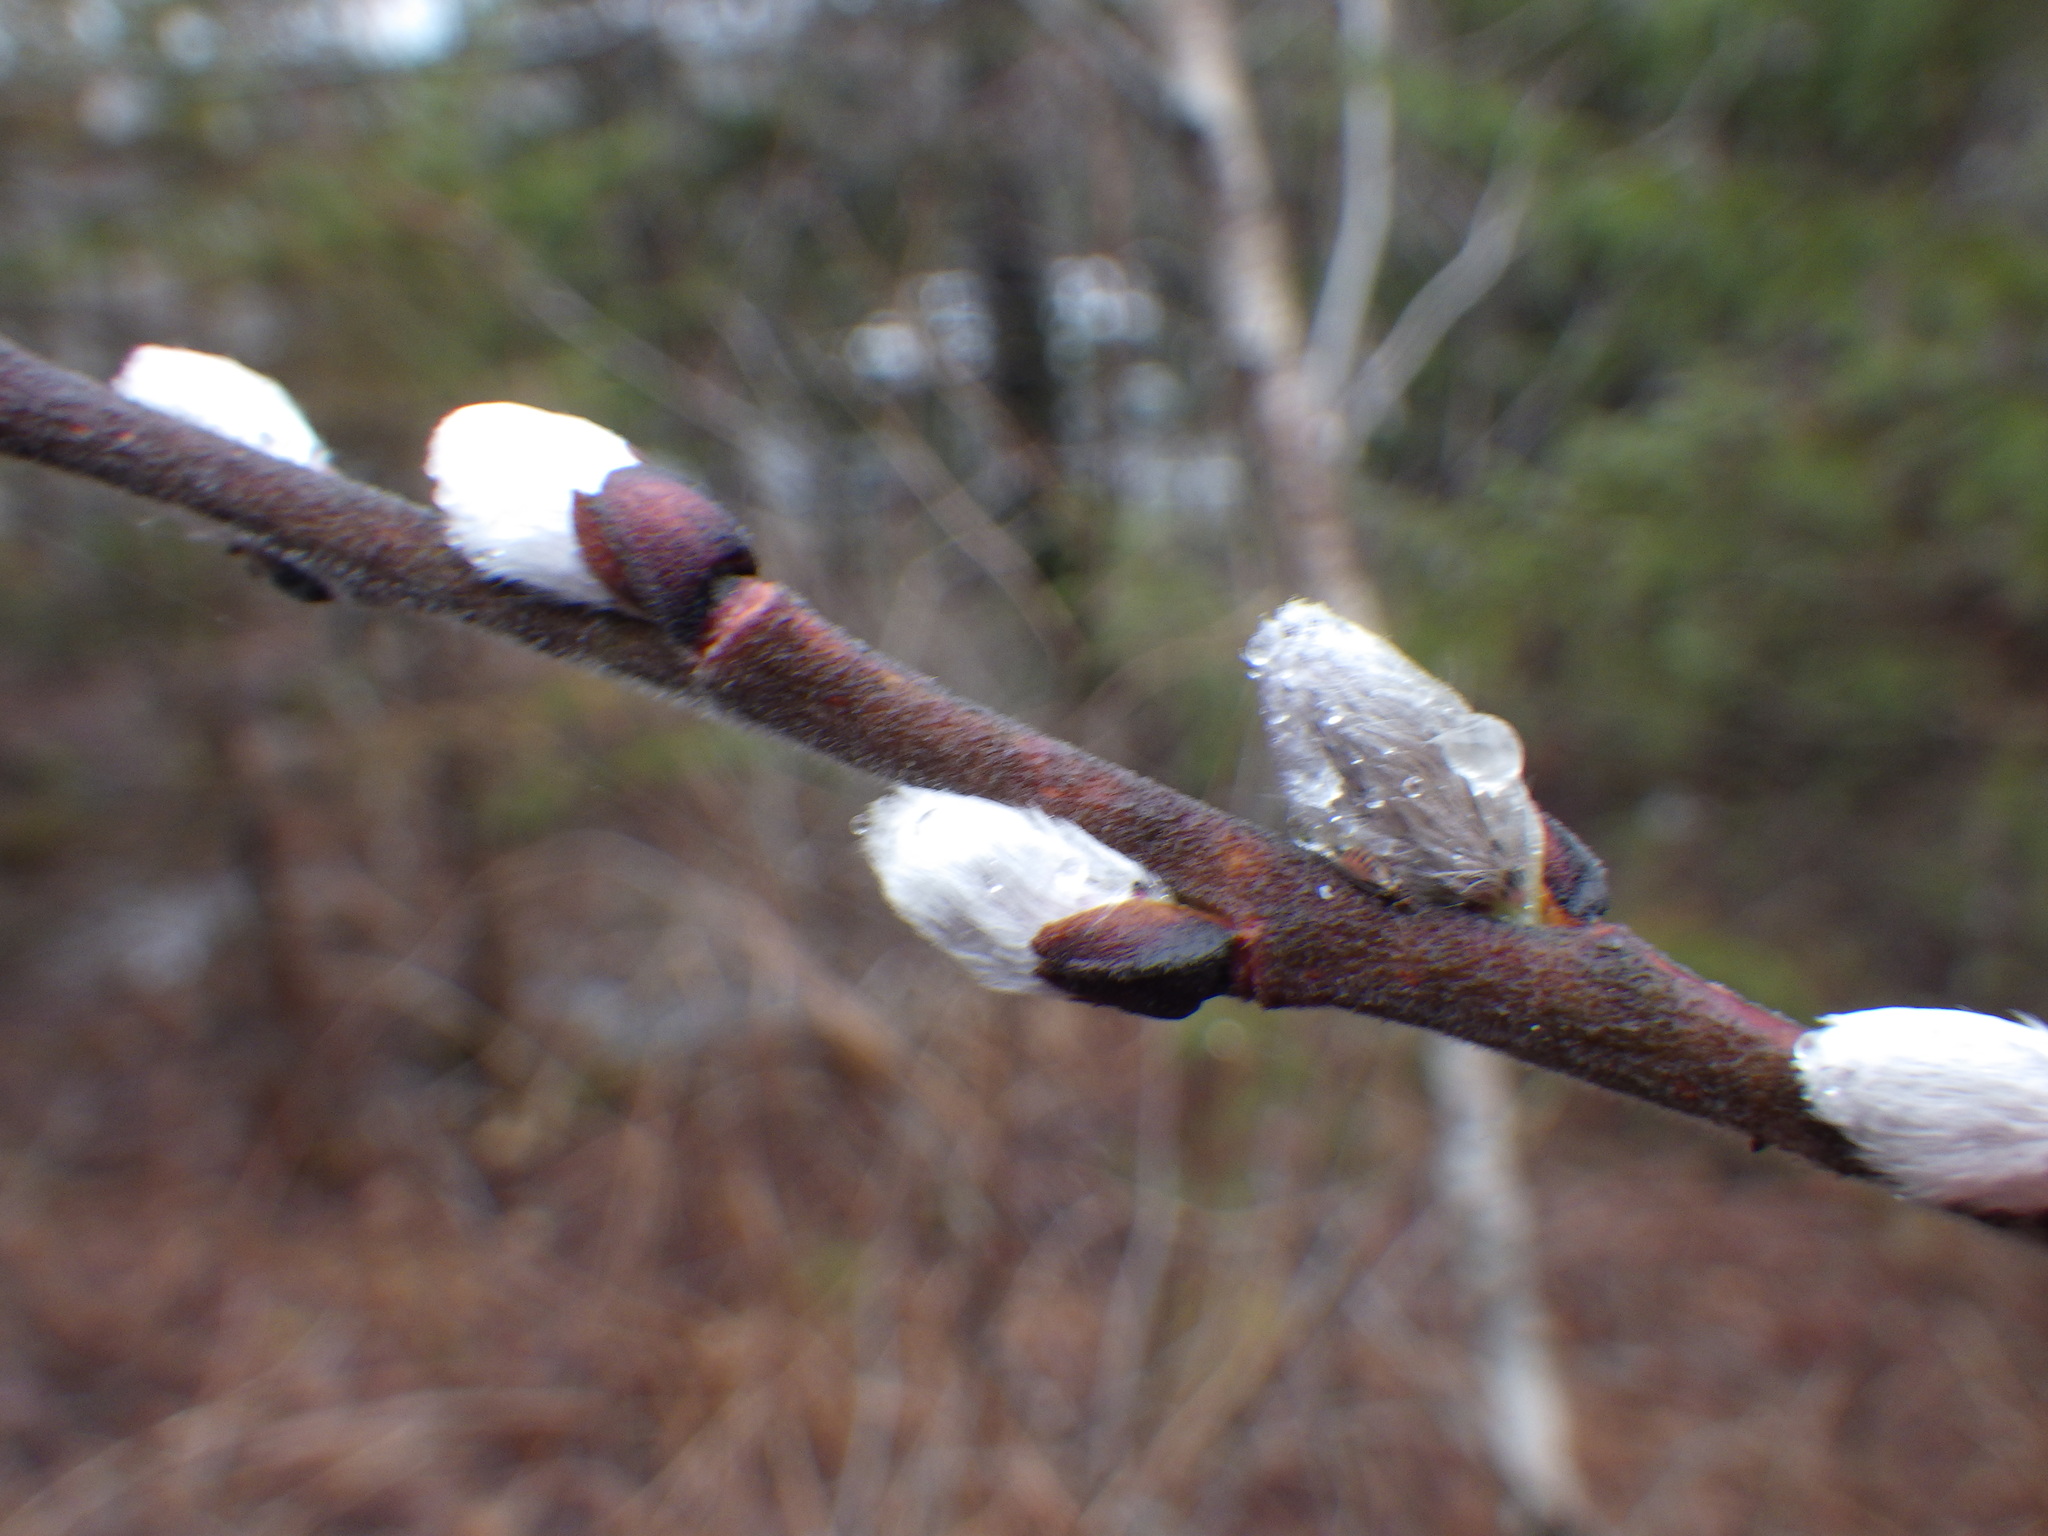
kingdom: Plantae
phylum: Tracheophyta
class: Magnoliopsida
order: Malpighiales
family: Salicaceae
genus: Salix
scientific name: Salix discolor
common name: Glaucous willow
